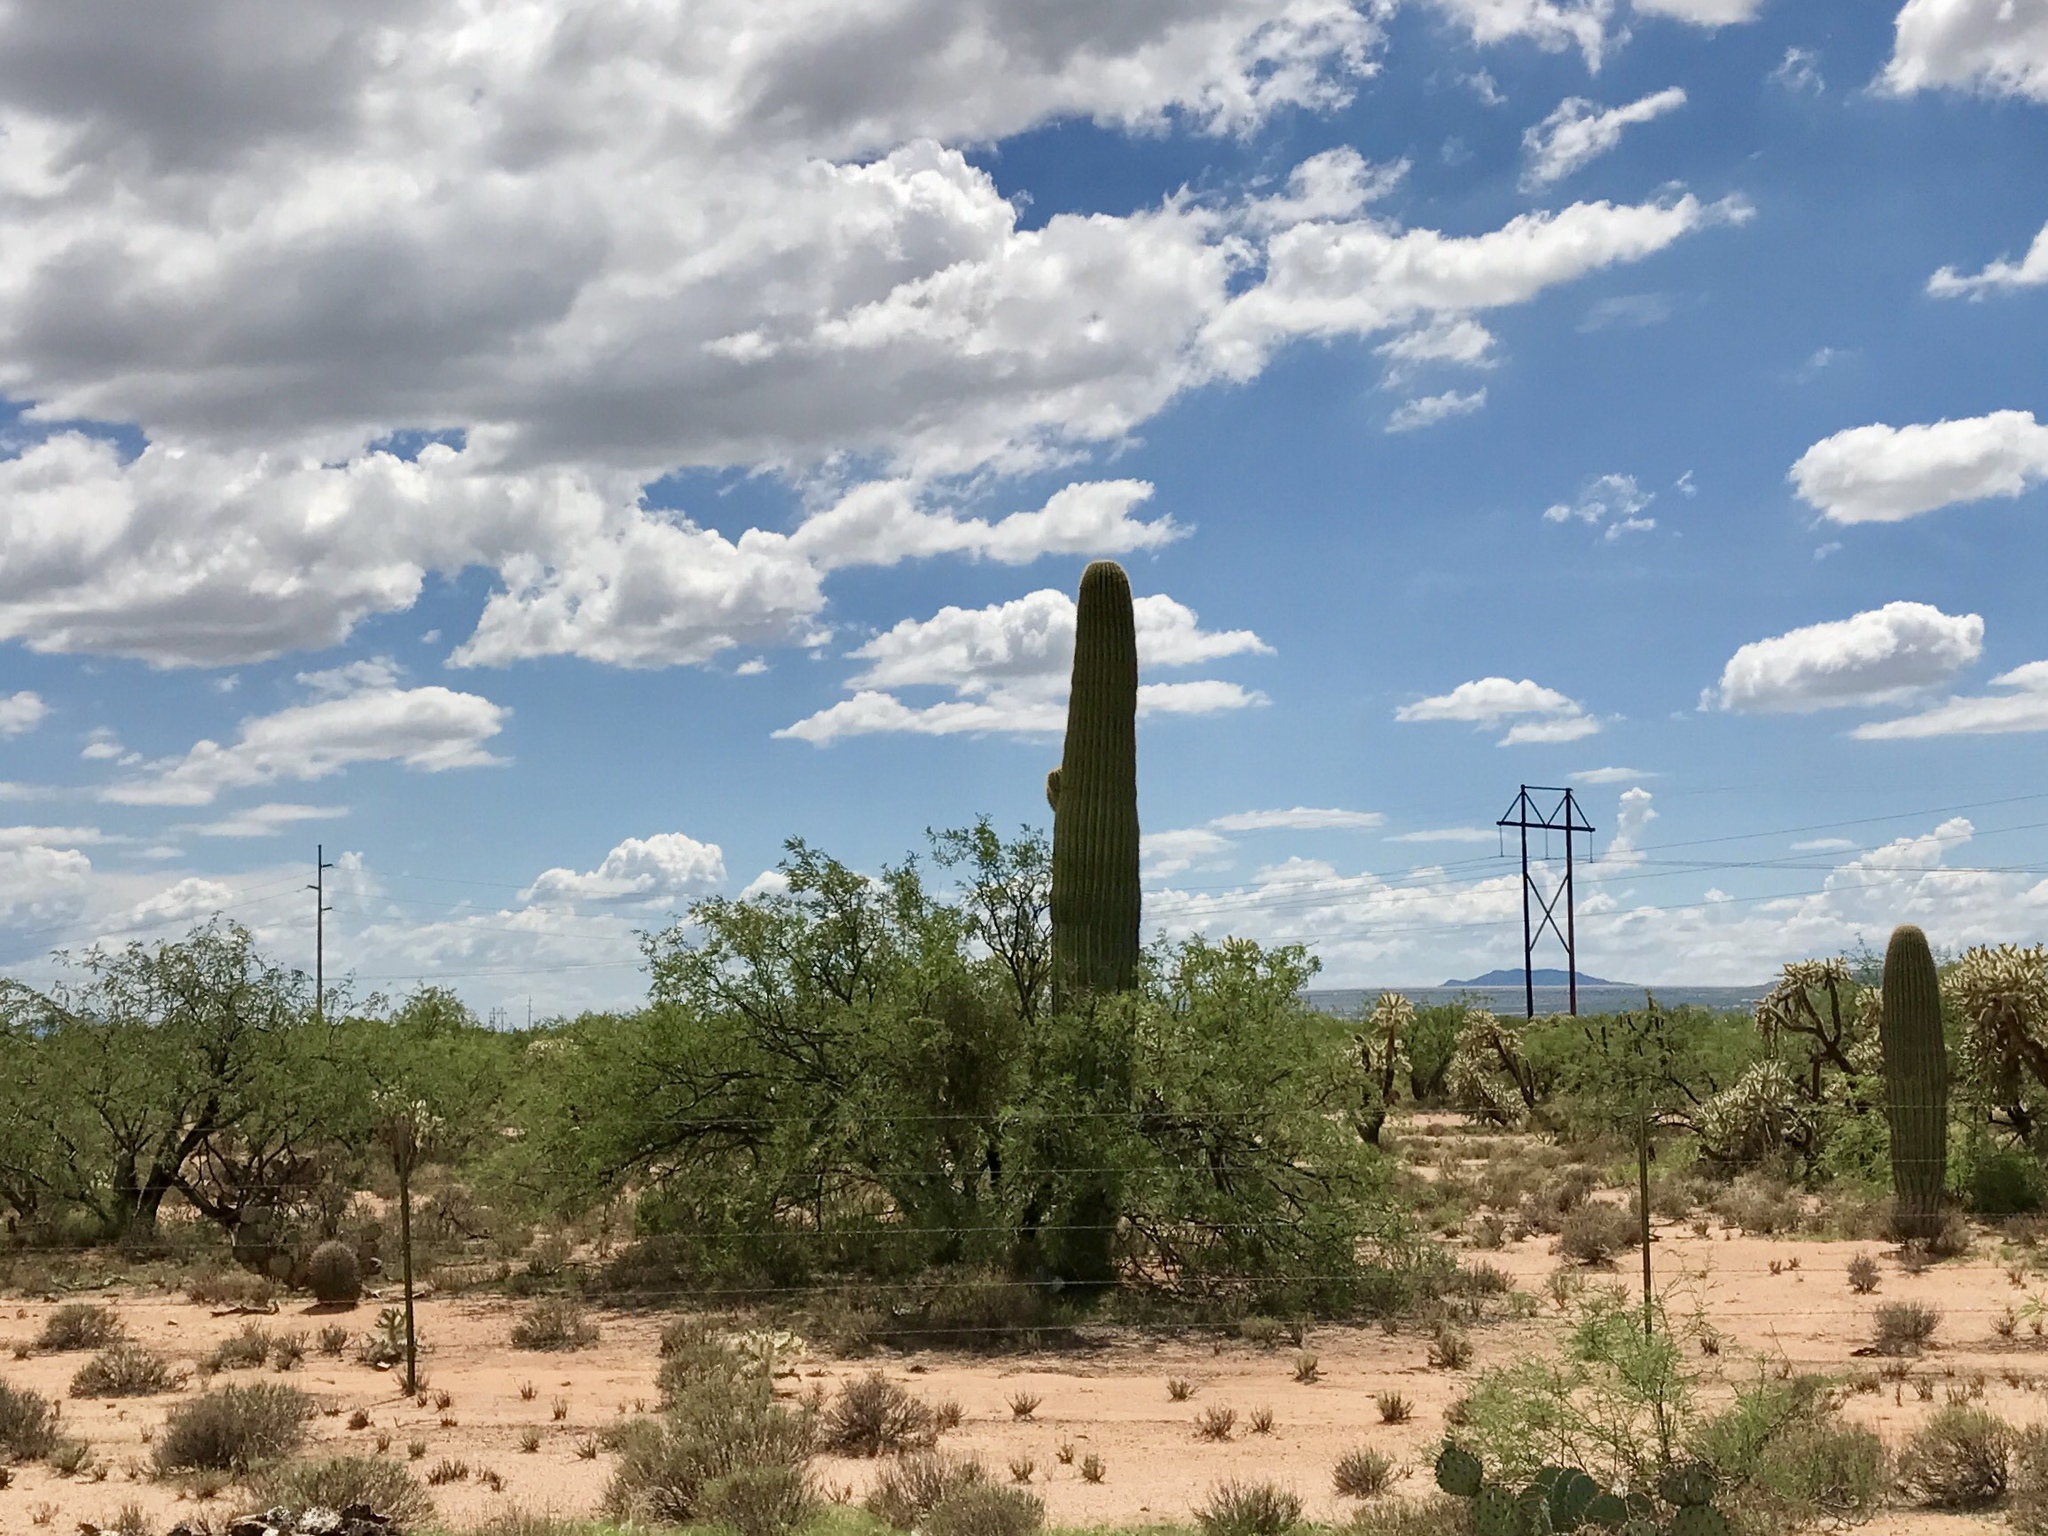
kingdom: Plantae
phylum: Tracheophyta
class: Magnoliopsida
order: Caryophyllales
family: Cactaceae
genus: Carnegiea
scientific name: Carnegiea gigantea
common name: Saguaro
